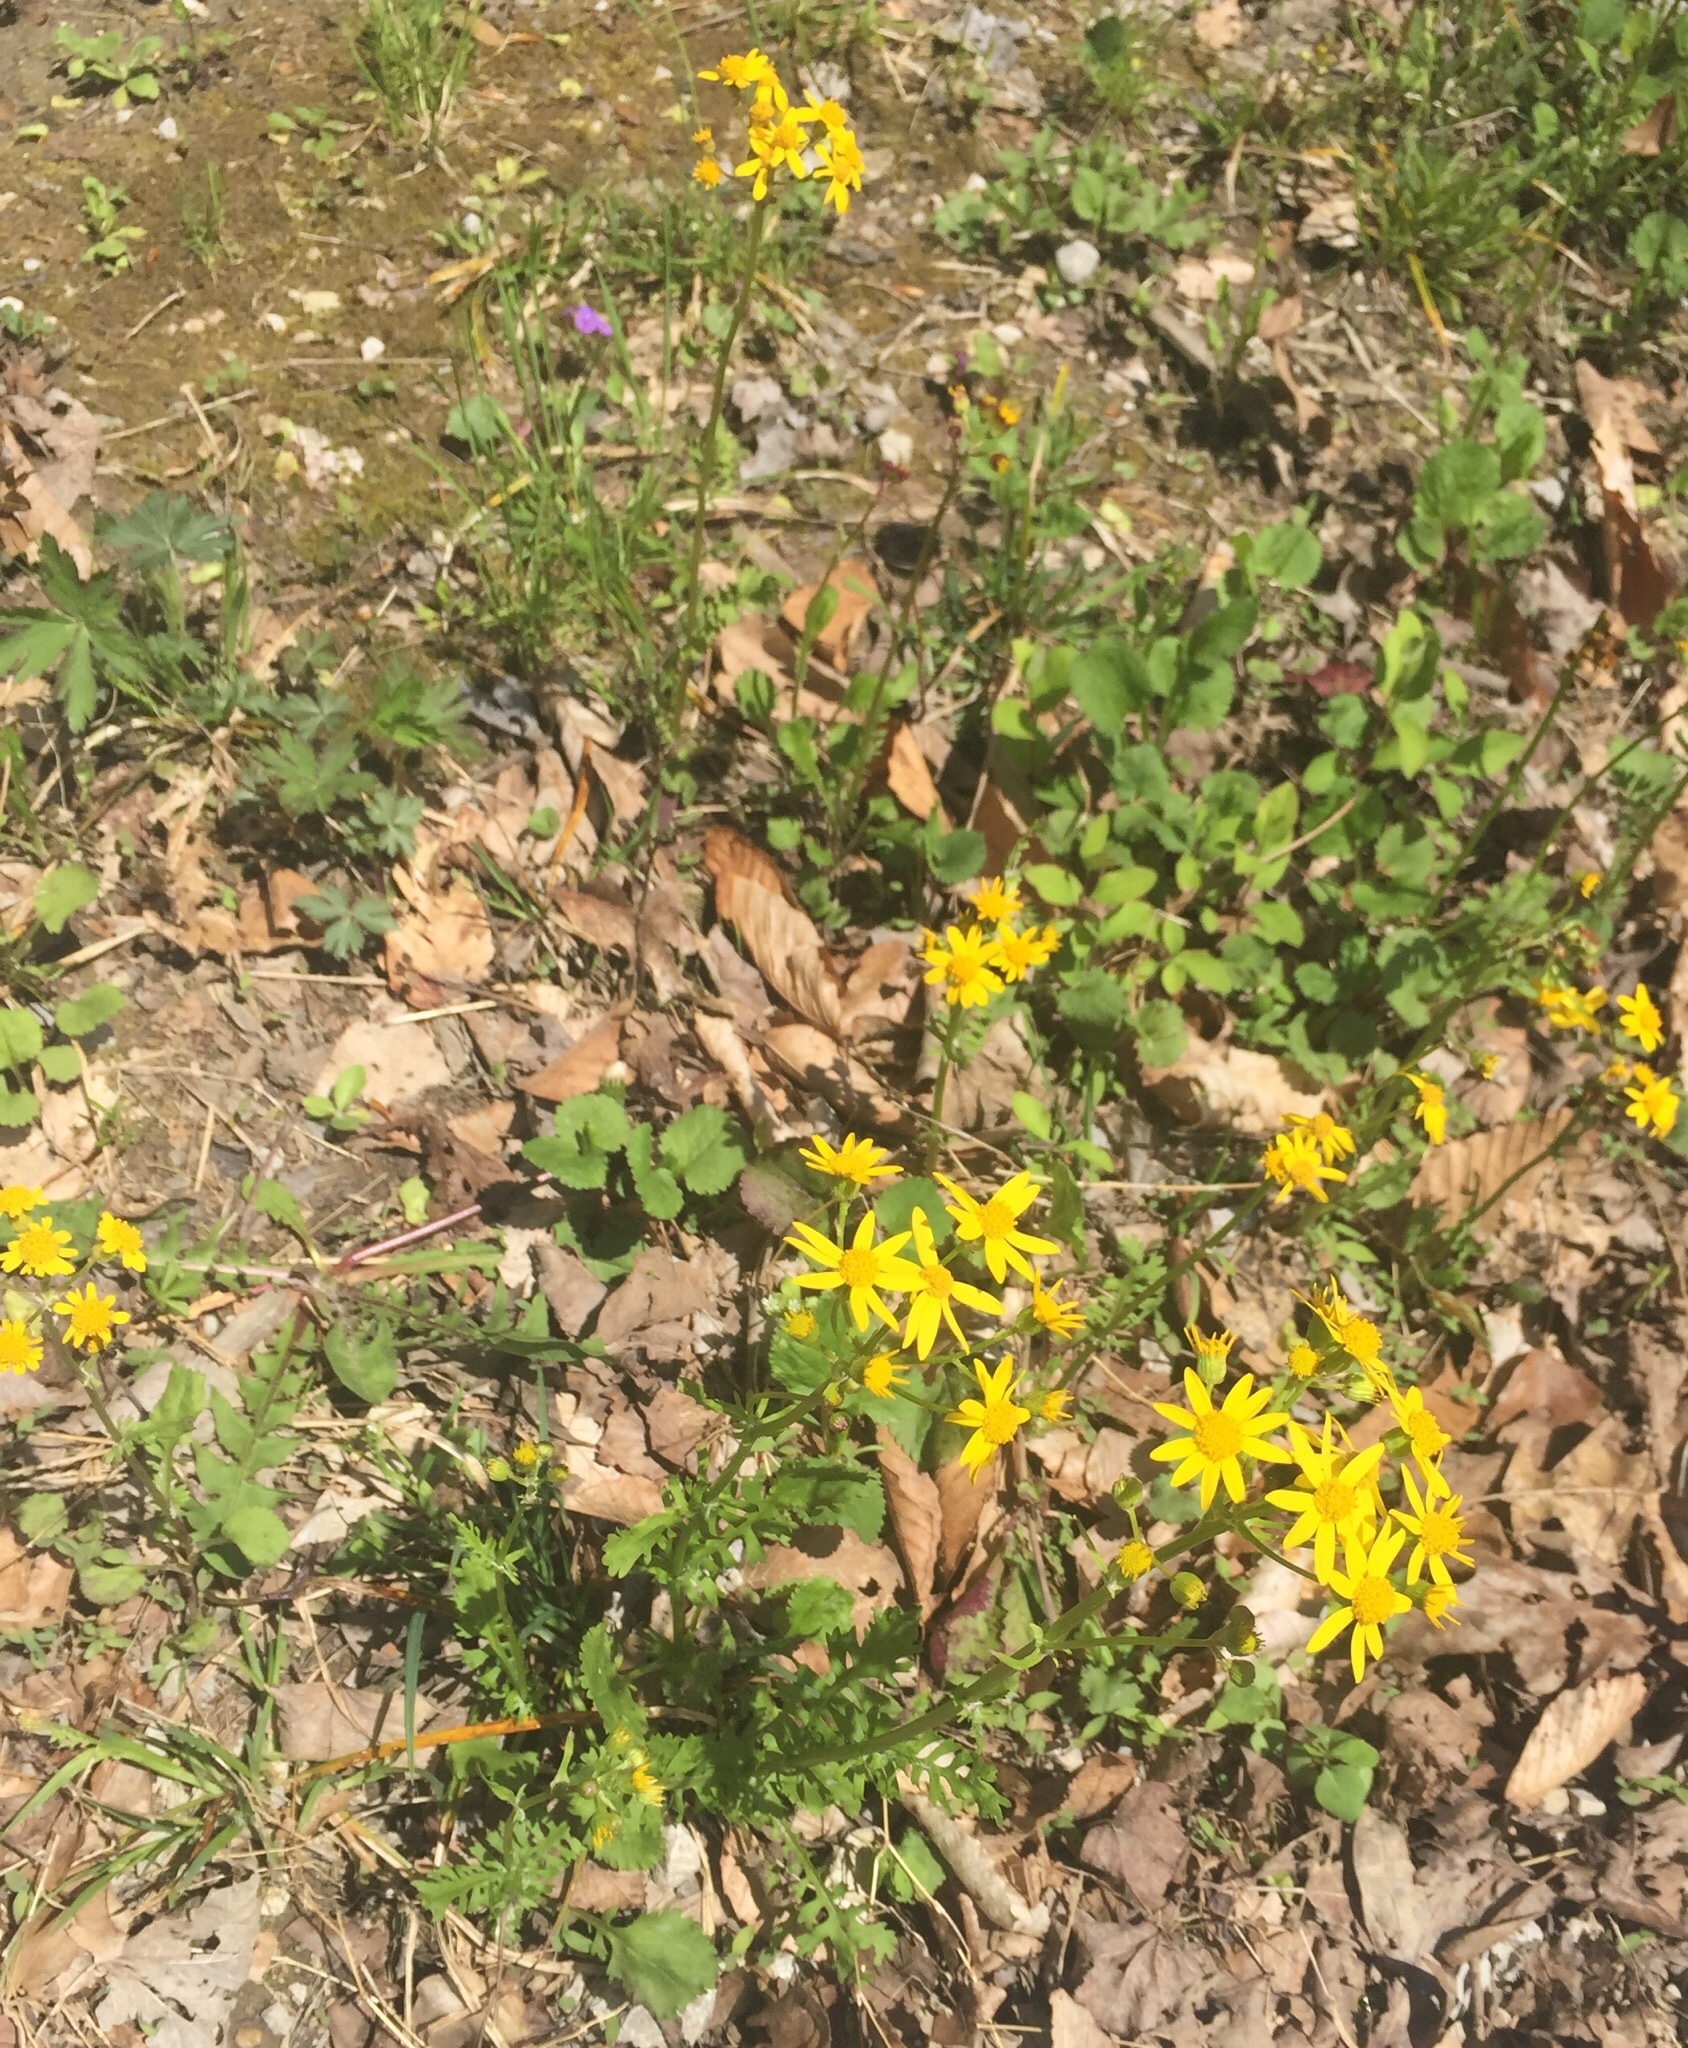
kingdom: Plantae
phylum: Tracheophyta
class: Magnoliopsida
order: Asterales
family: Asteraceae
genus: Packera
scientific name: Packera glabella
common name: Butterweed
